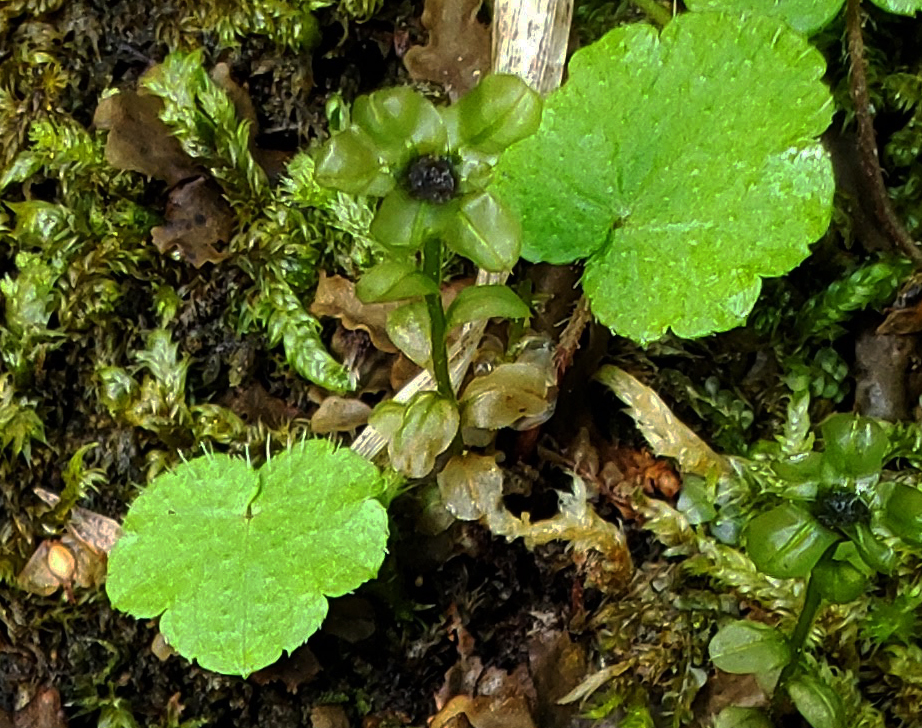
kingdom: Plantae
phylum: Tracheophyta
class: Magnoliopsida
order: Saxifragales
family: Saxifragaceae
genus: Mitella
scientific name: Mitella nuda
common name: Bare-stemmed bishop's-cap
